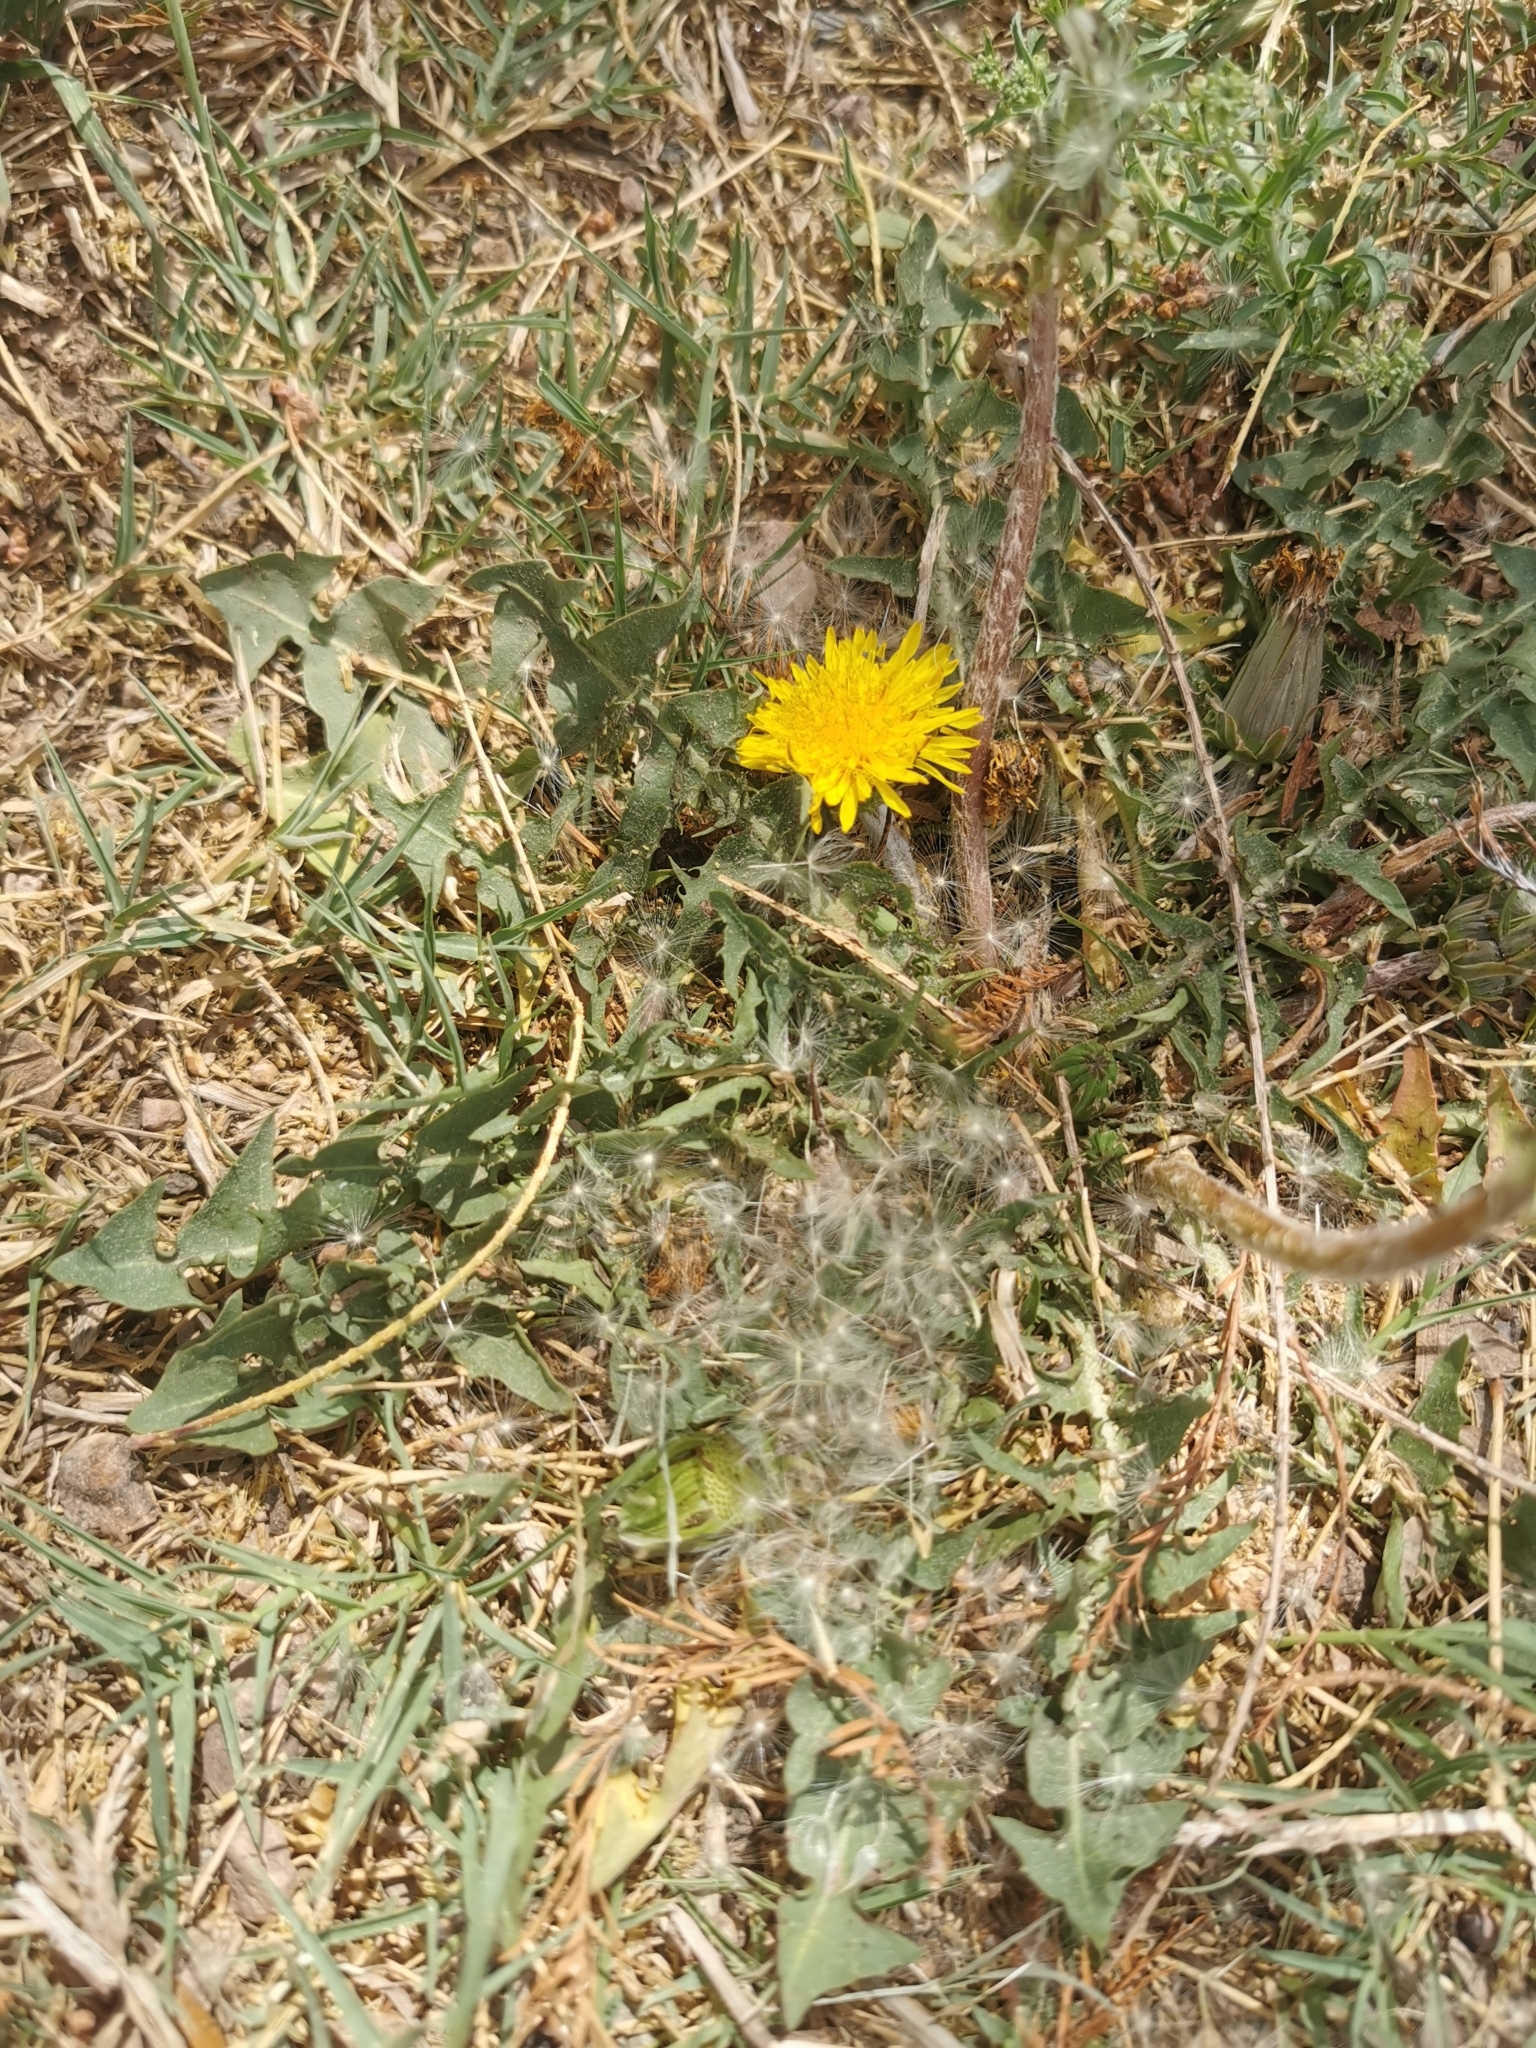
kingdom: Plantae
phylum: Tracheophyta
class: Magnoliopsida
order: Asterales
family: Asteraceae
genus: Taraxacum
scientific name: Taraxacum officinale
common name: Common dandelion
